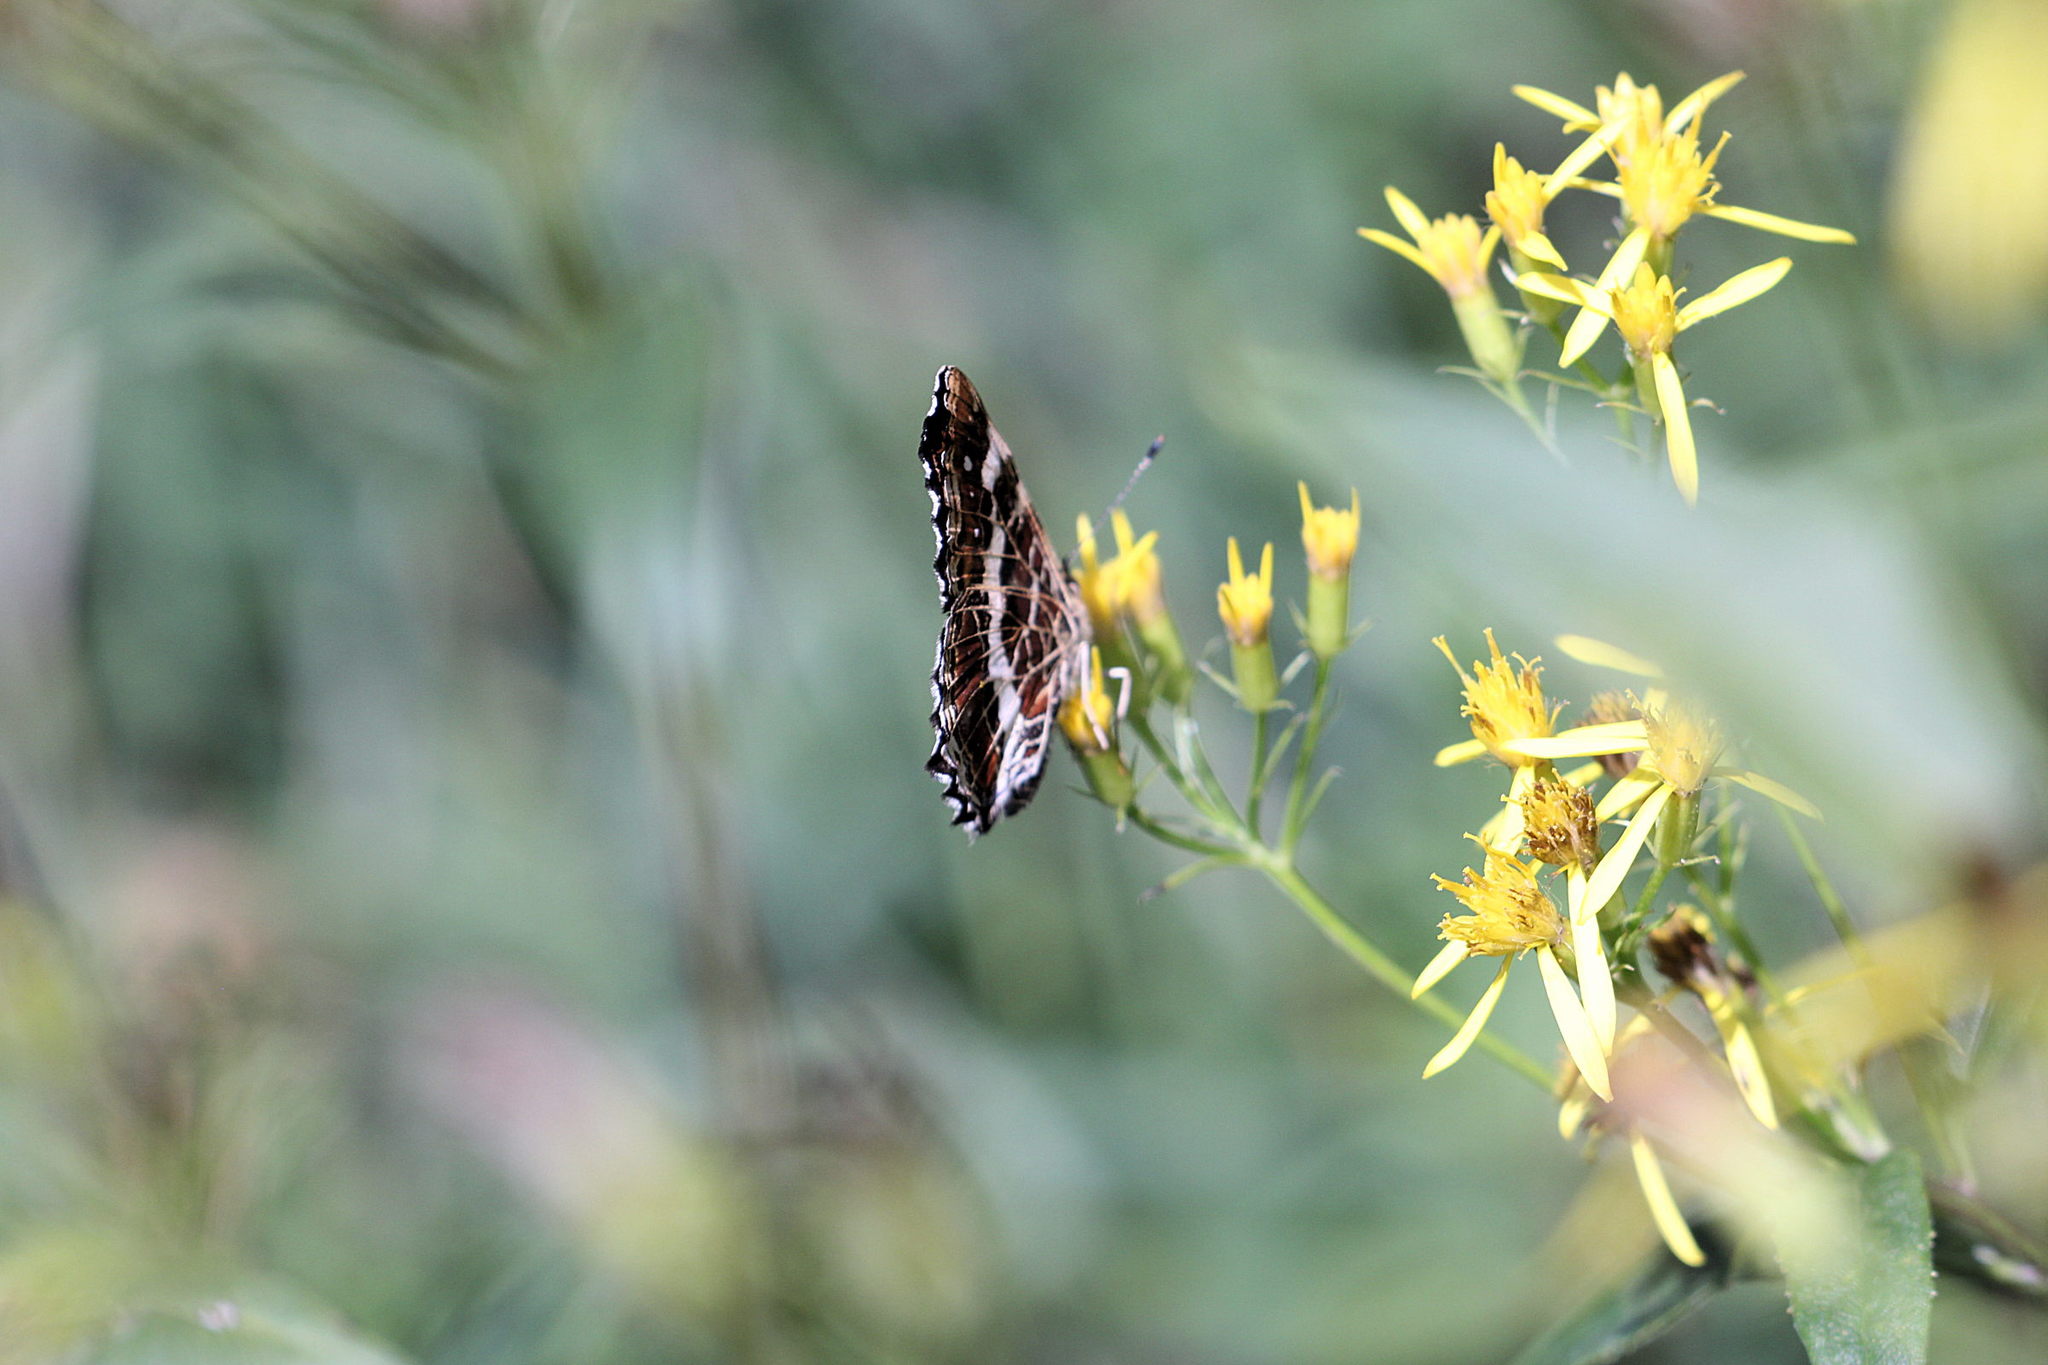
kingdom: Animalia
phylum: Arthropoda
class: Insecta
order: Lepidoptera
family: Nymphalidae
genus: Araschnia
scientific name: Araschnia levana
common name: Map butterfly
